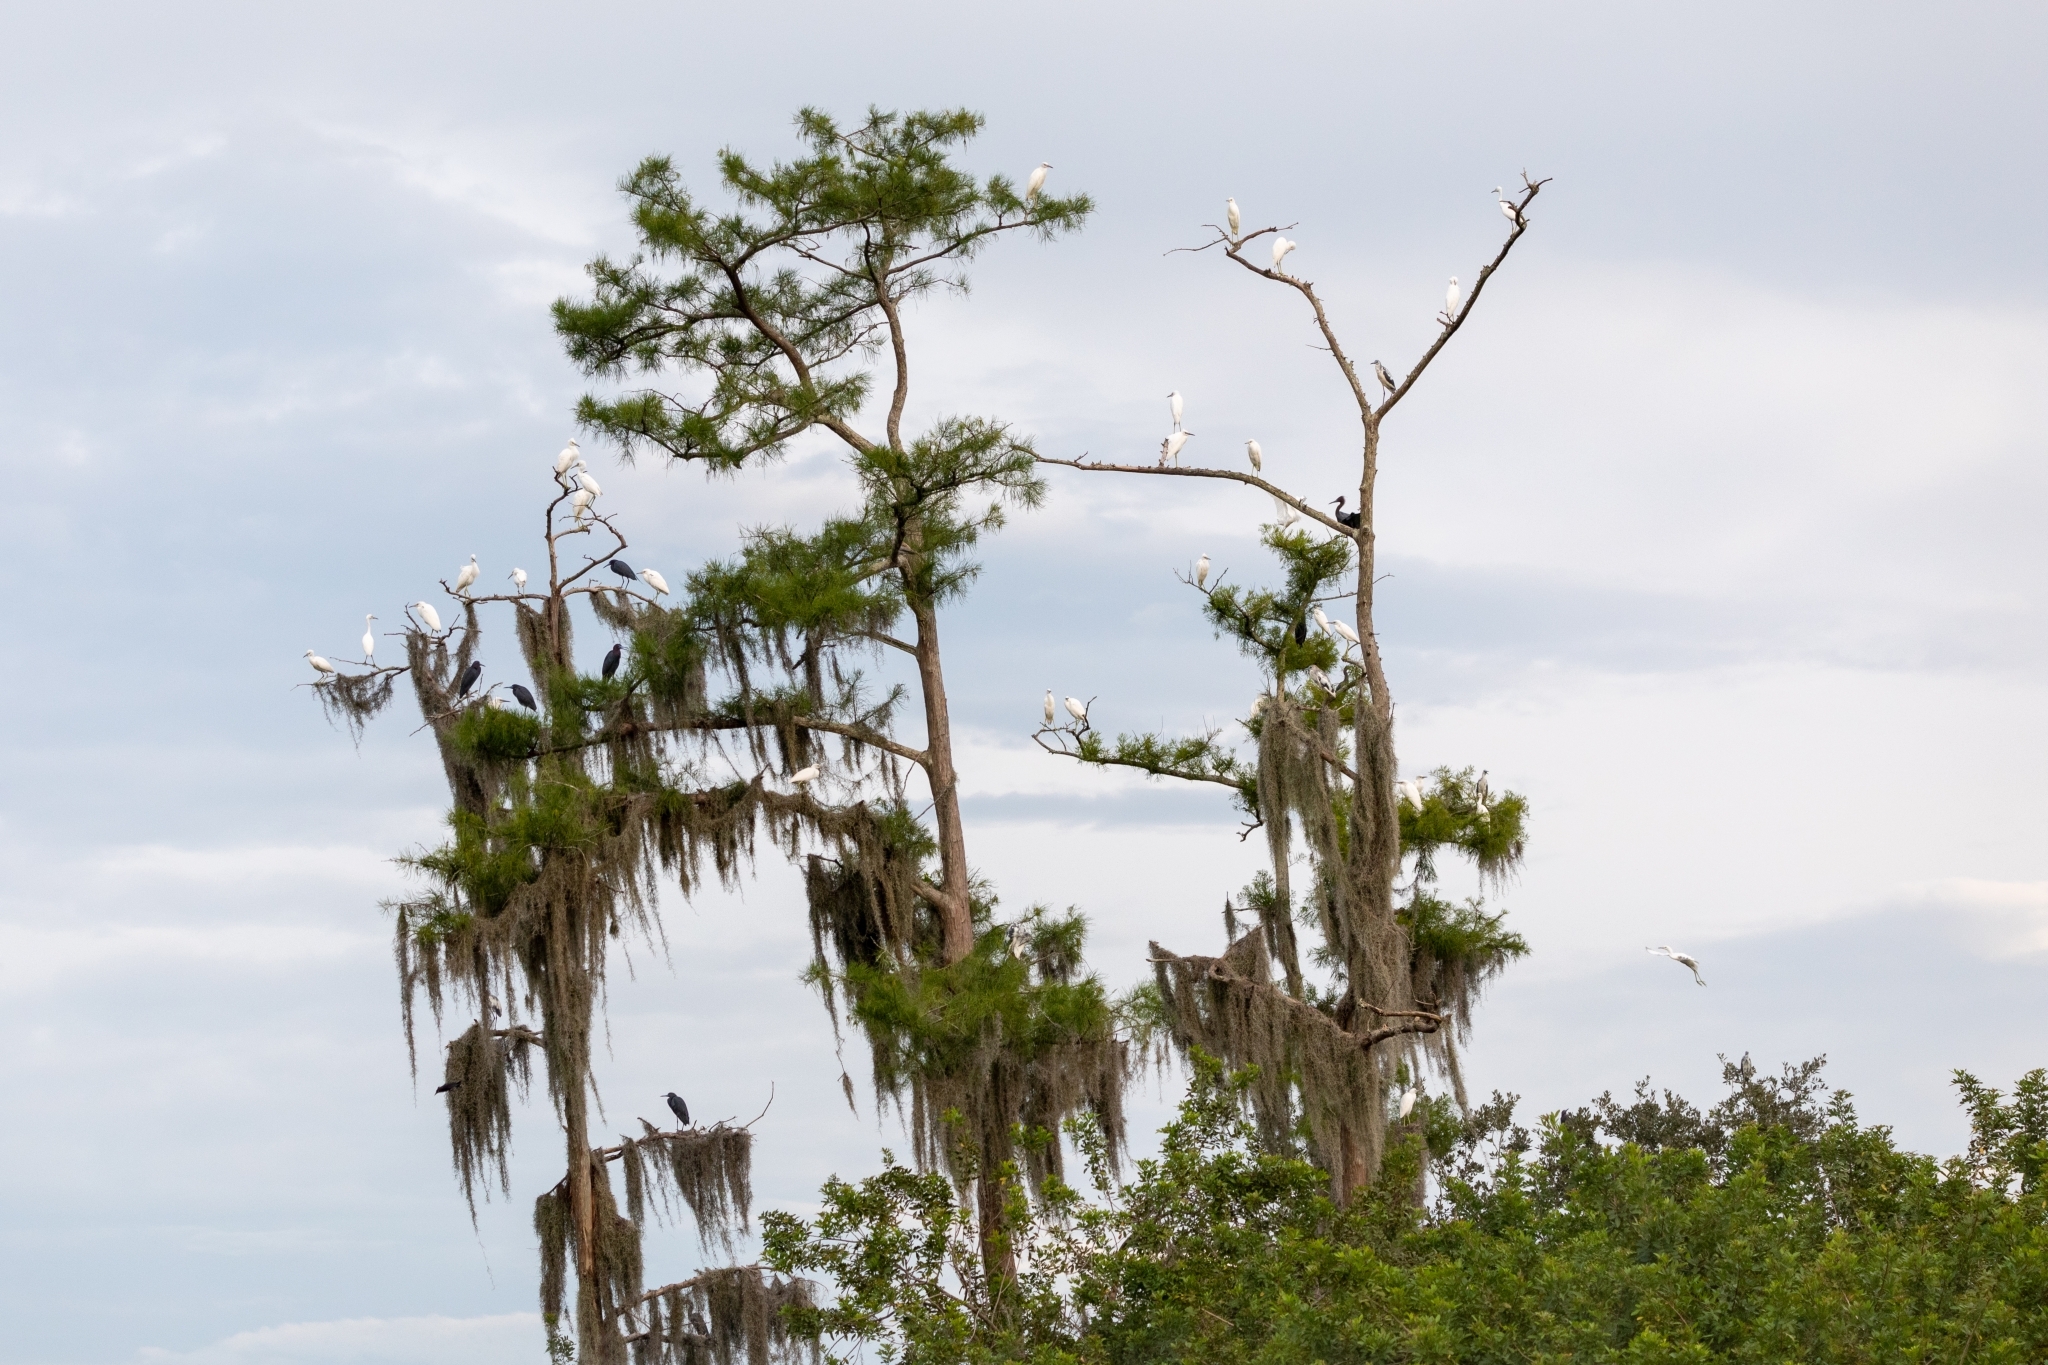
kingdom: Animalia
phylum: Chordata
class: Aves
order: Pelecaniformes
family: Ardeidae
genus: Egretta
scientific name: Egretta caerulea
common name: Little blue heron
